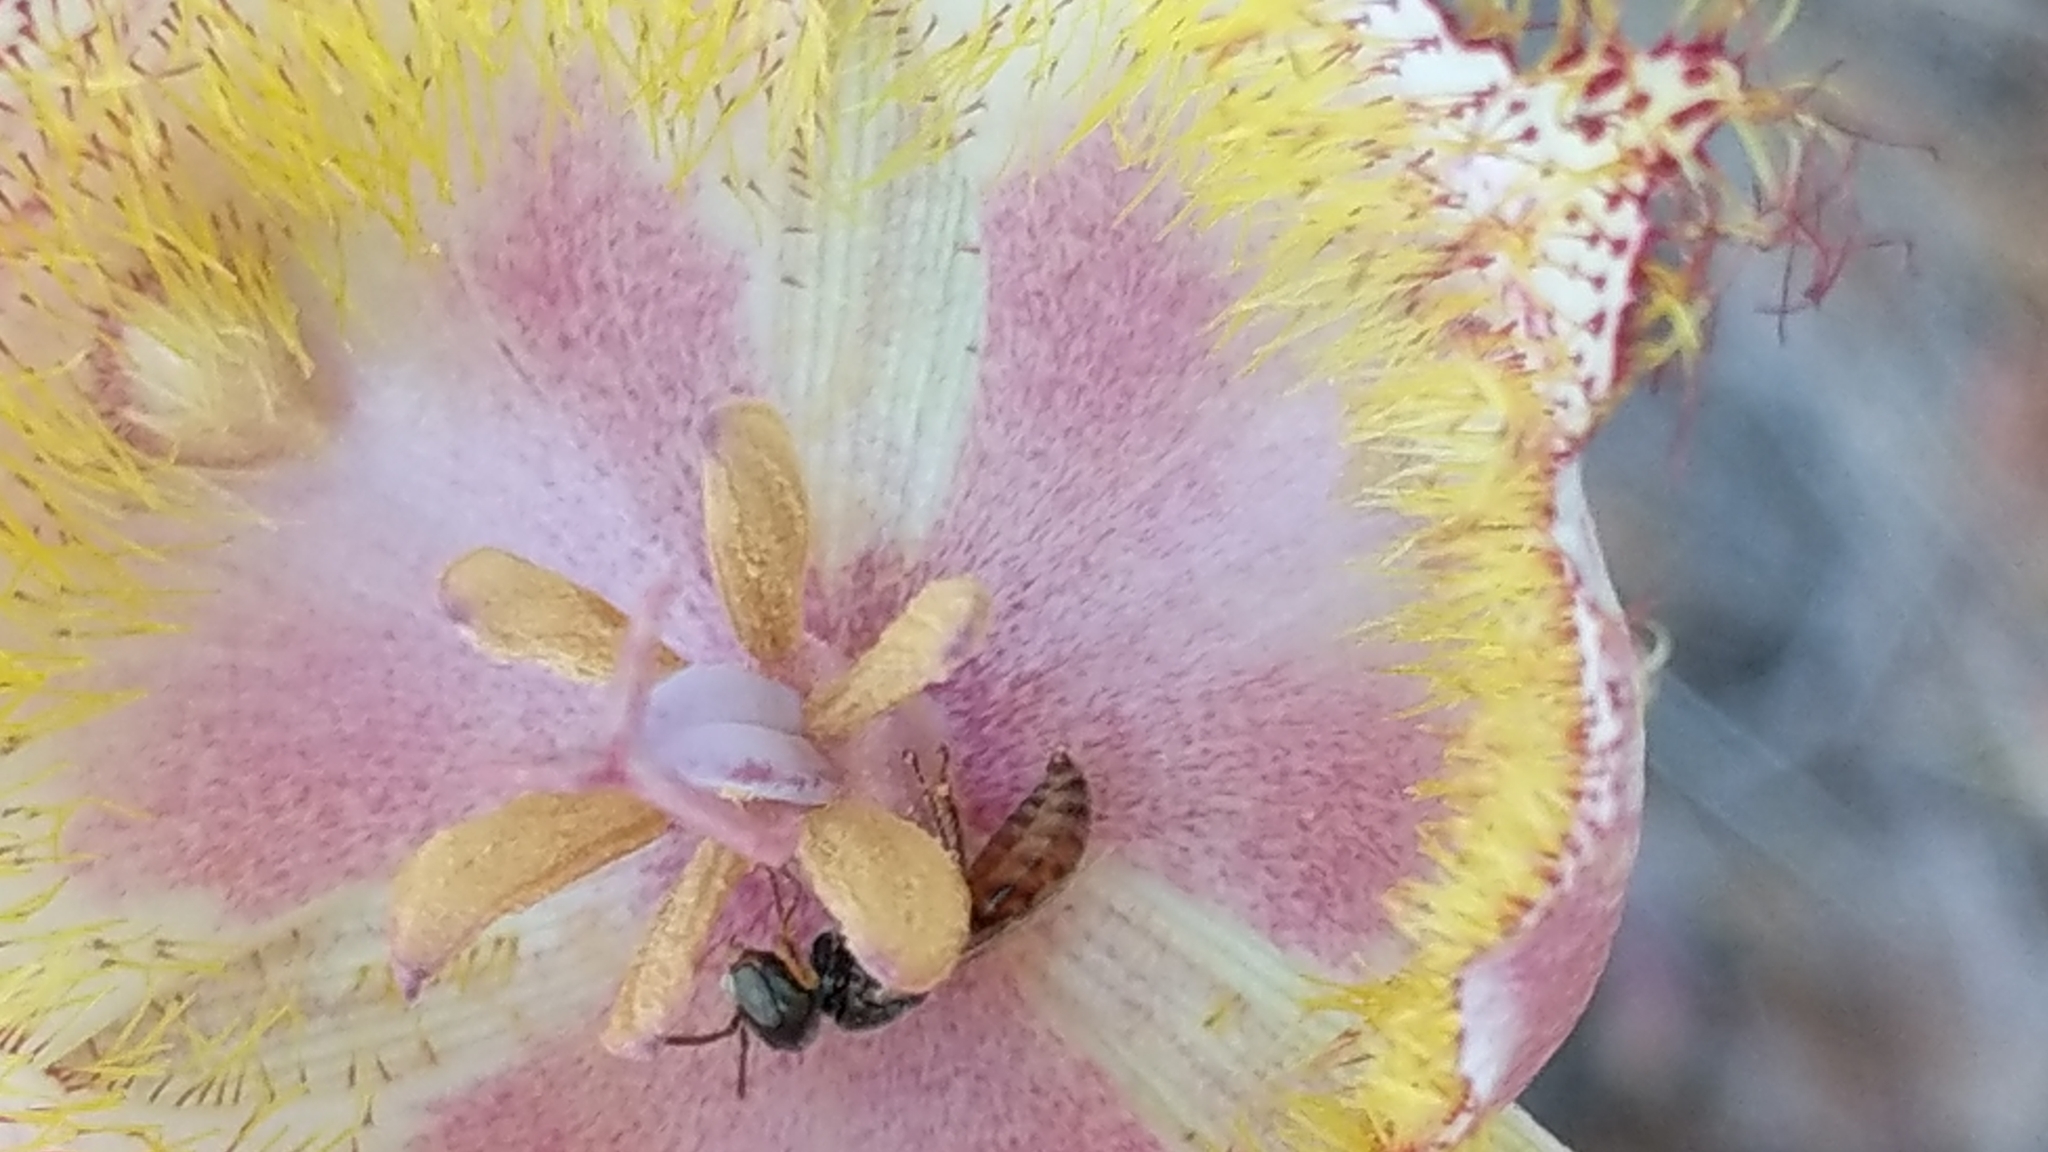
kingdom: Plantae
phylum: Tracheophyta
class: Liliopsida
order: Liliales
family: Liliaceae
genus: Calochortus
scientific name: Calochortus fimbriatus
